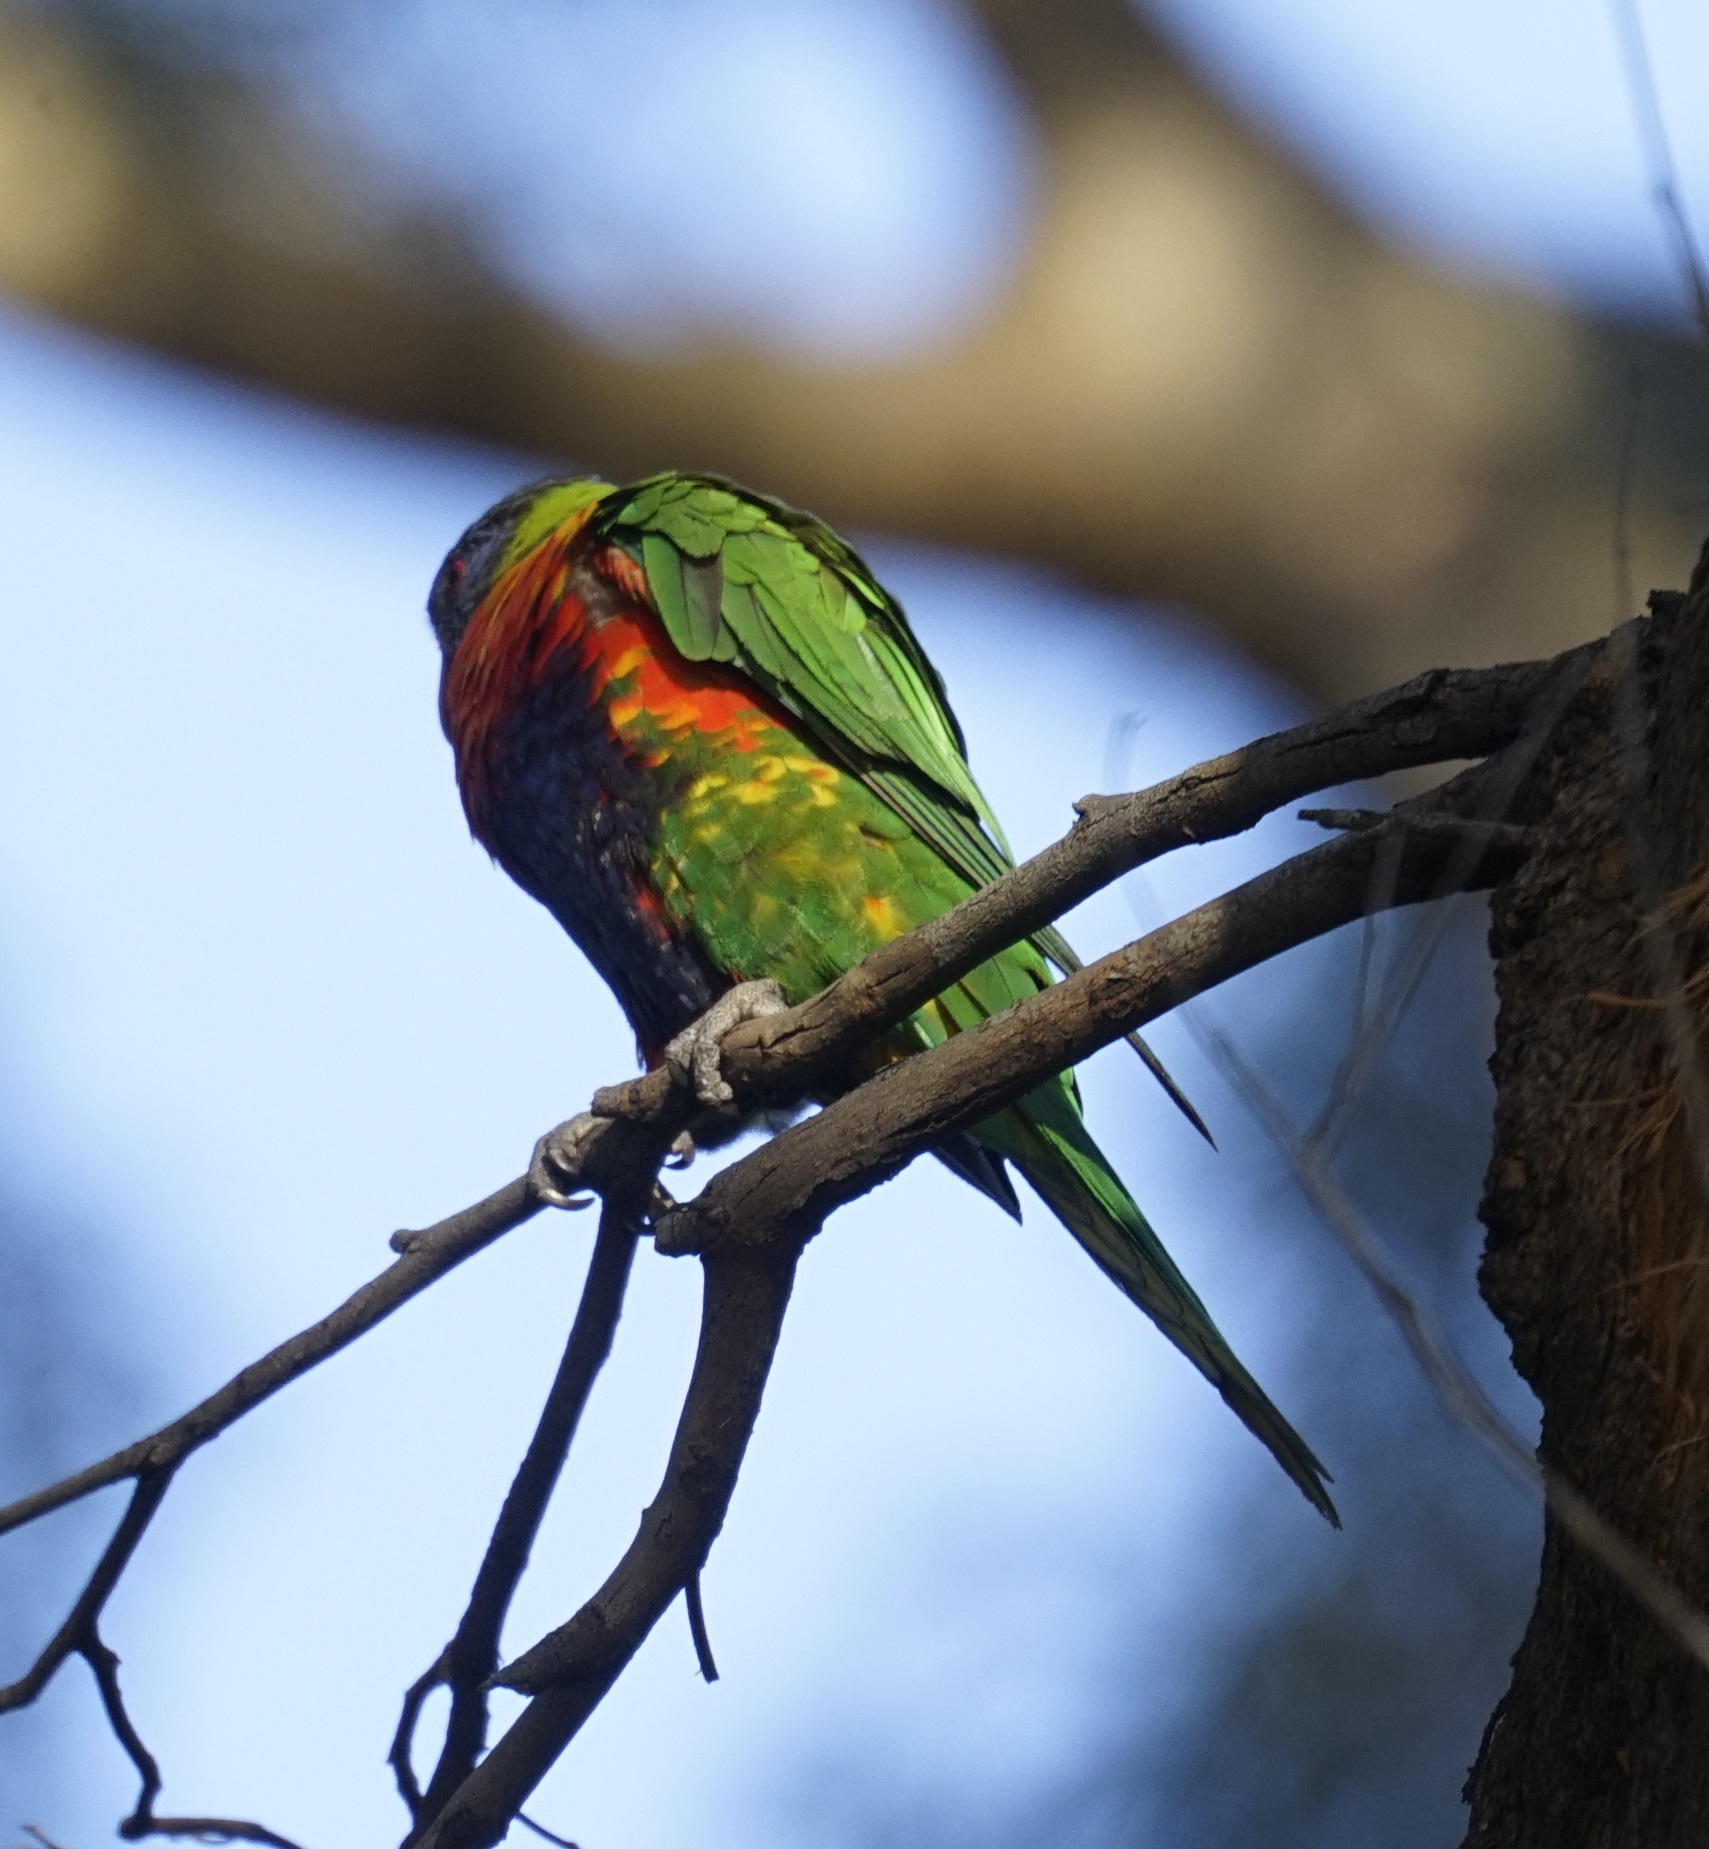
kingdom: Animalia
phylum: Chordata
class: Aves
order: Psittaciformes
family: Psittacidae
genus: Trichoglossus
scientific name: Trichoglossus haematodus
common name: Coconut lorikeet
